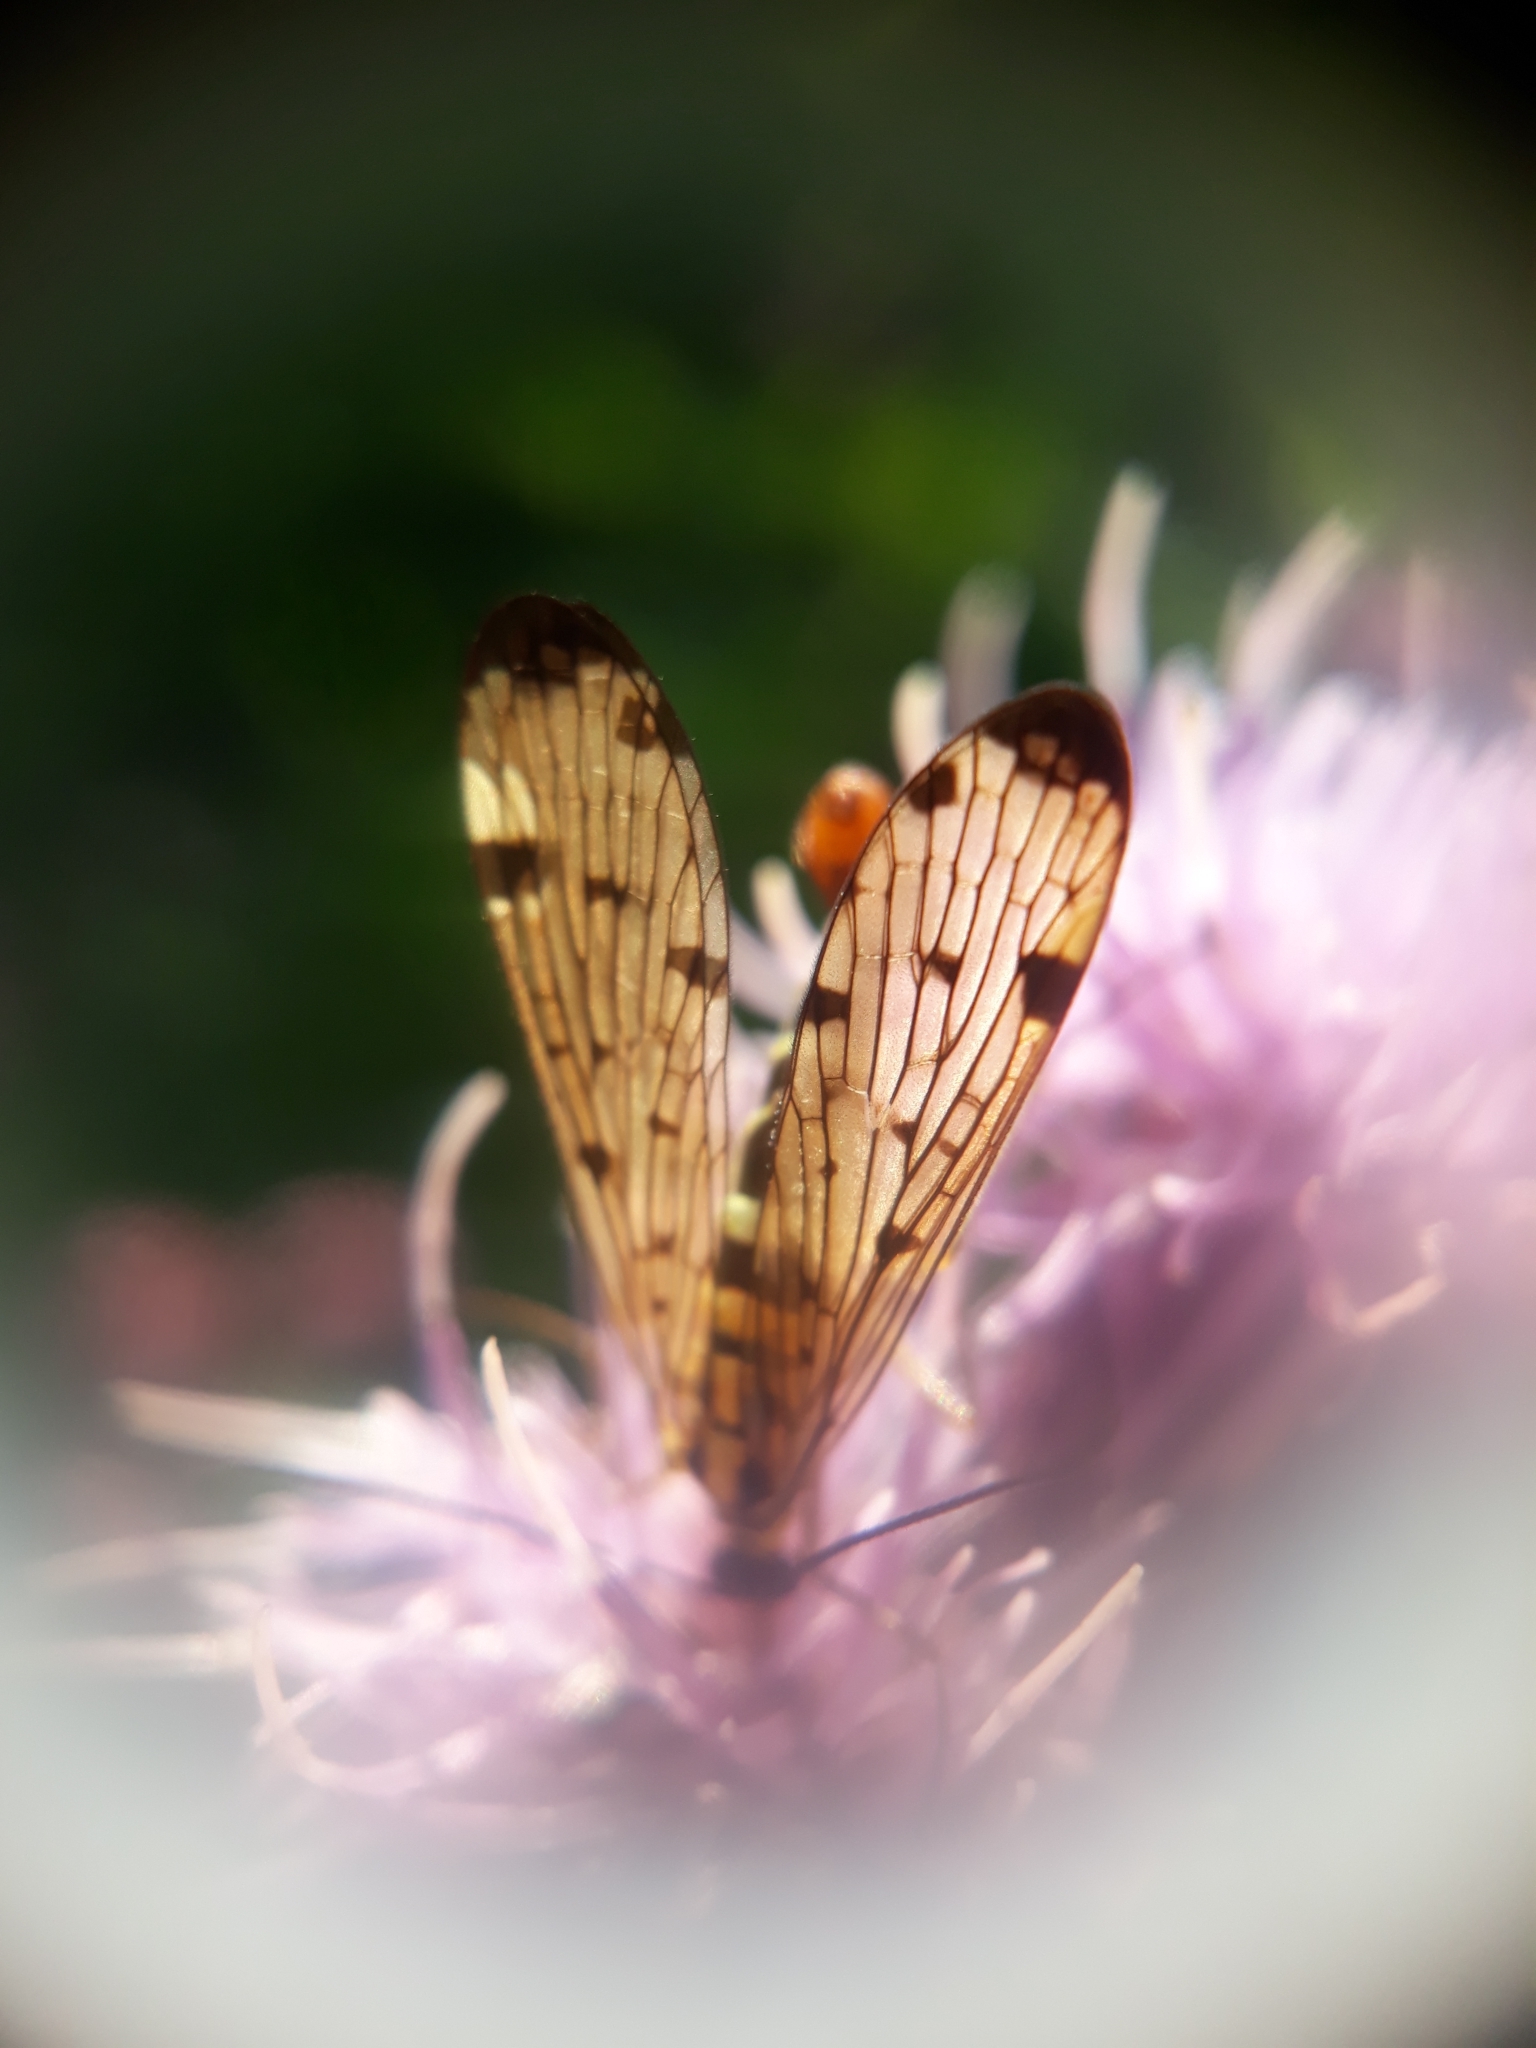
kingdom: Animalia
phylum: Arthropoda
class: Insecta
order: Mecoptera
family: Panorpidae
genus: Panorpa
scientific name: Panorpa germanica
